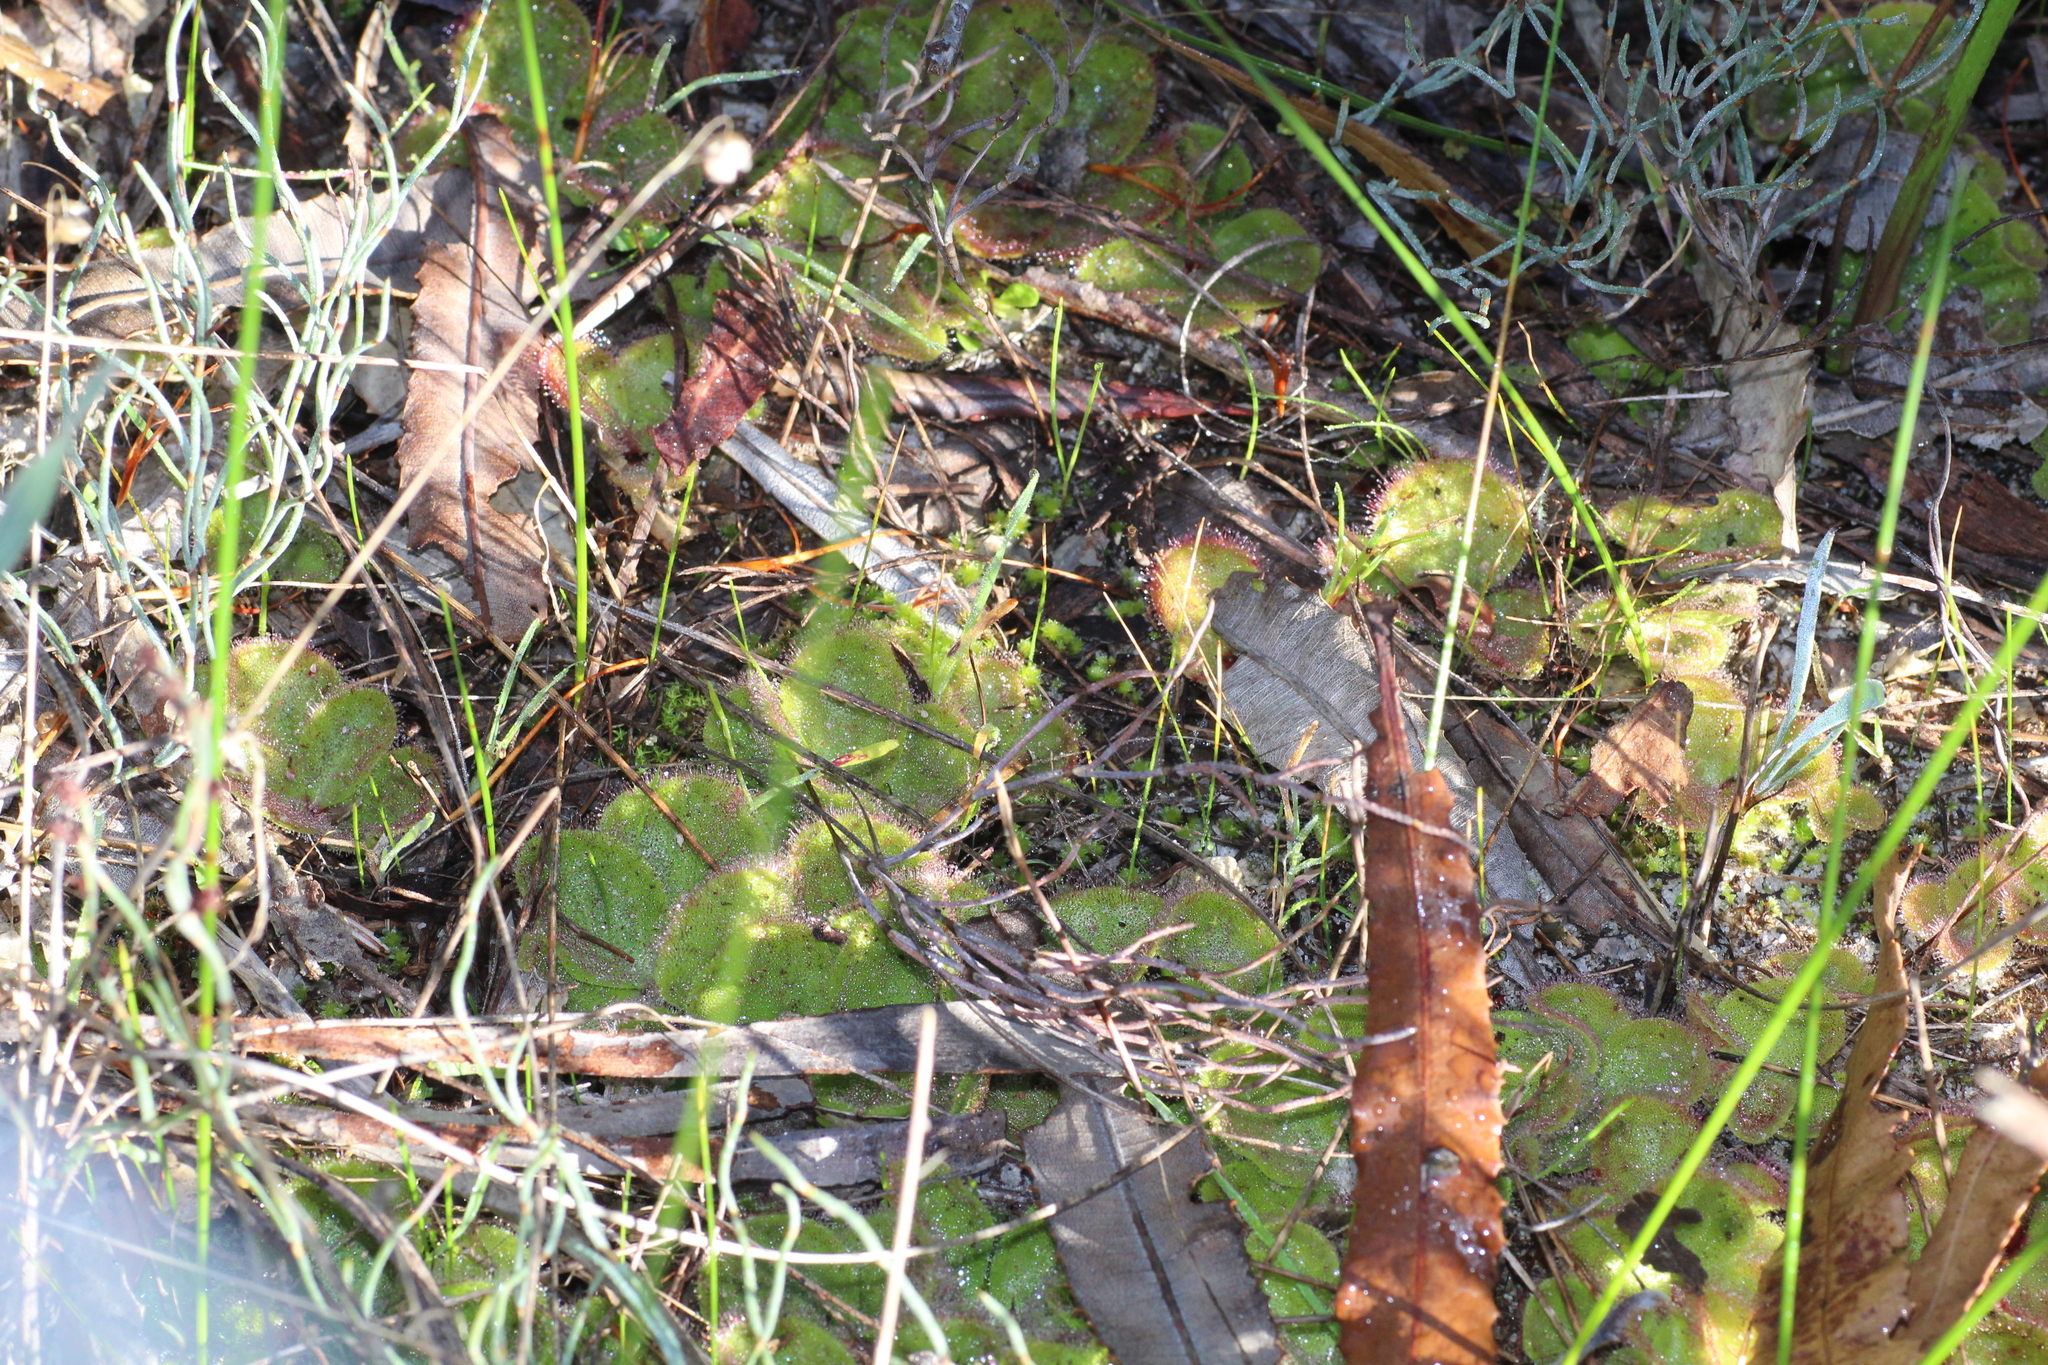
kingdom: Plantae
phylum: Tracheophyta
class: Magnoliopsida
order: Caryophyllales
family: Droseraceae
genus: Drosera
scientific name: Drosera erythrorhiza
